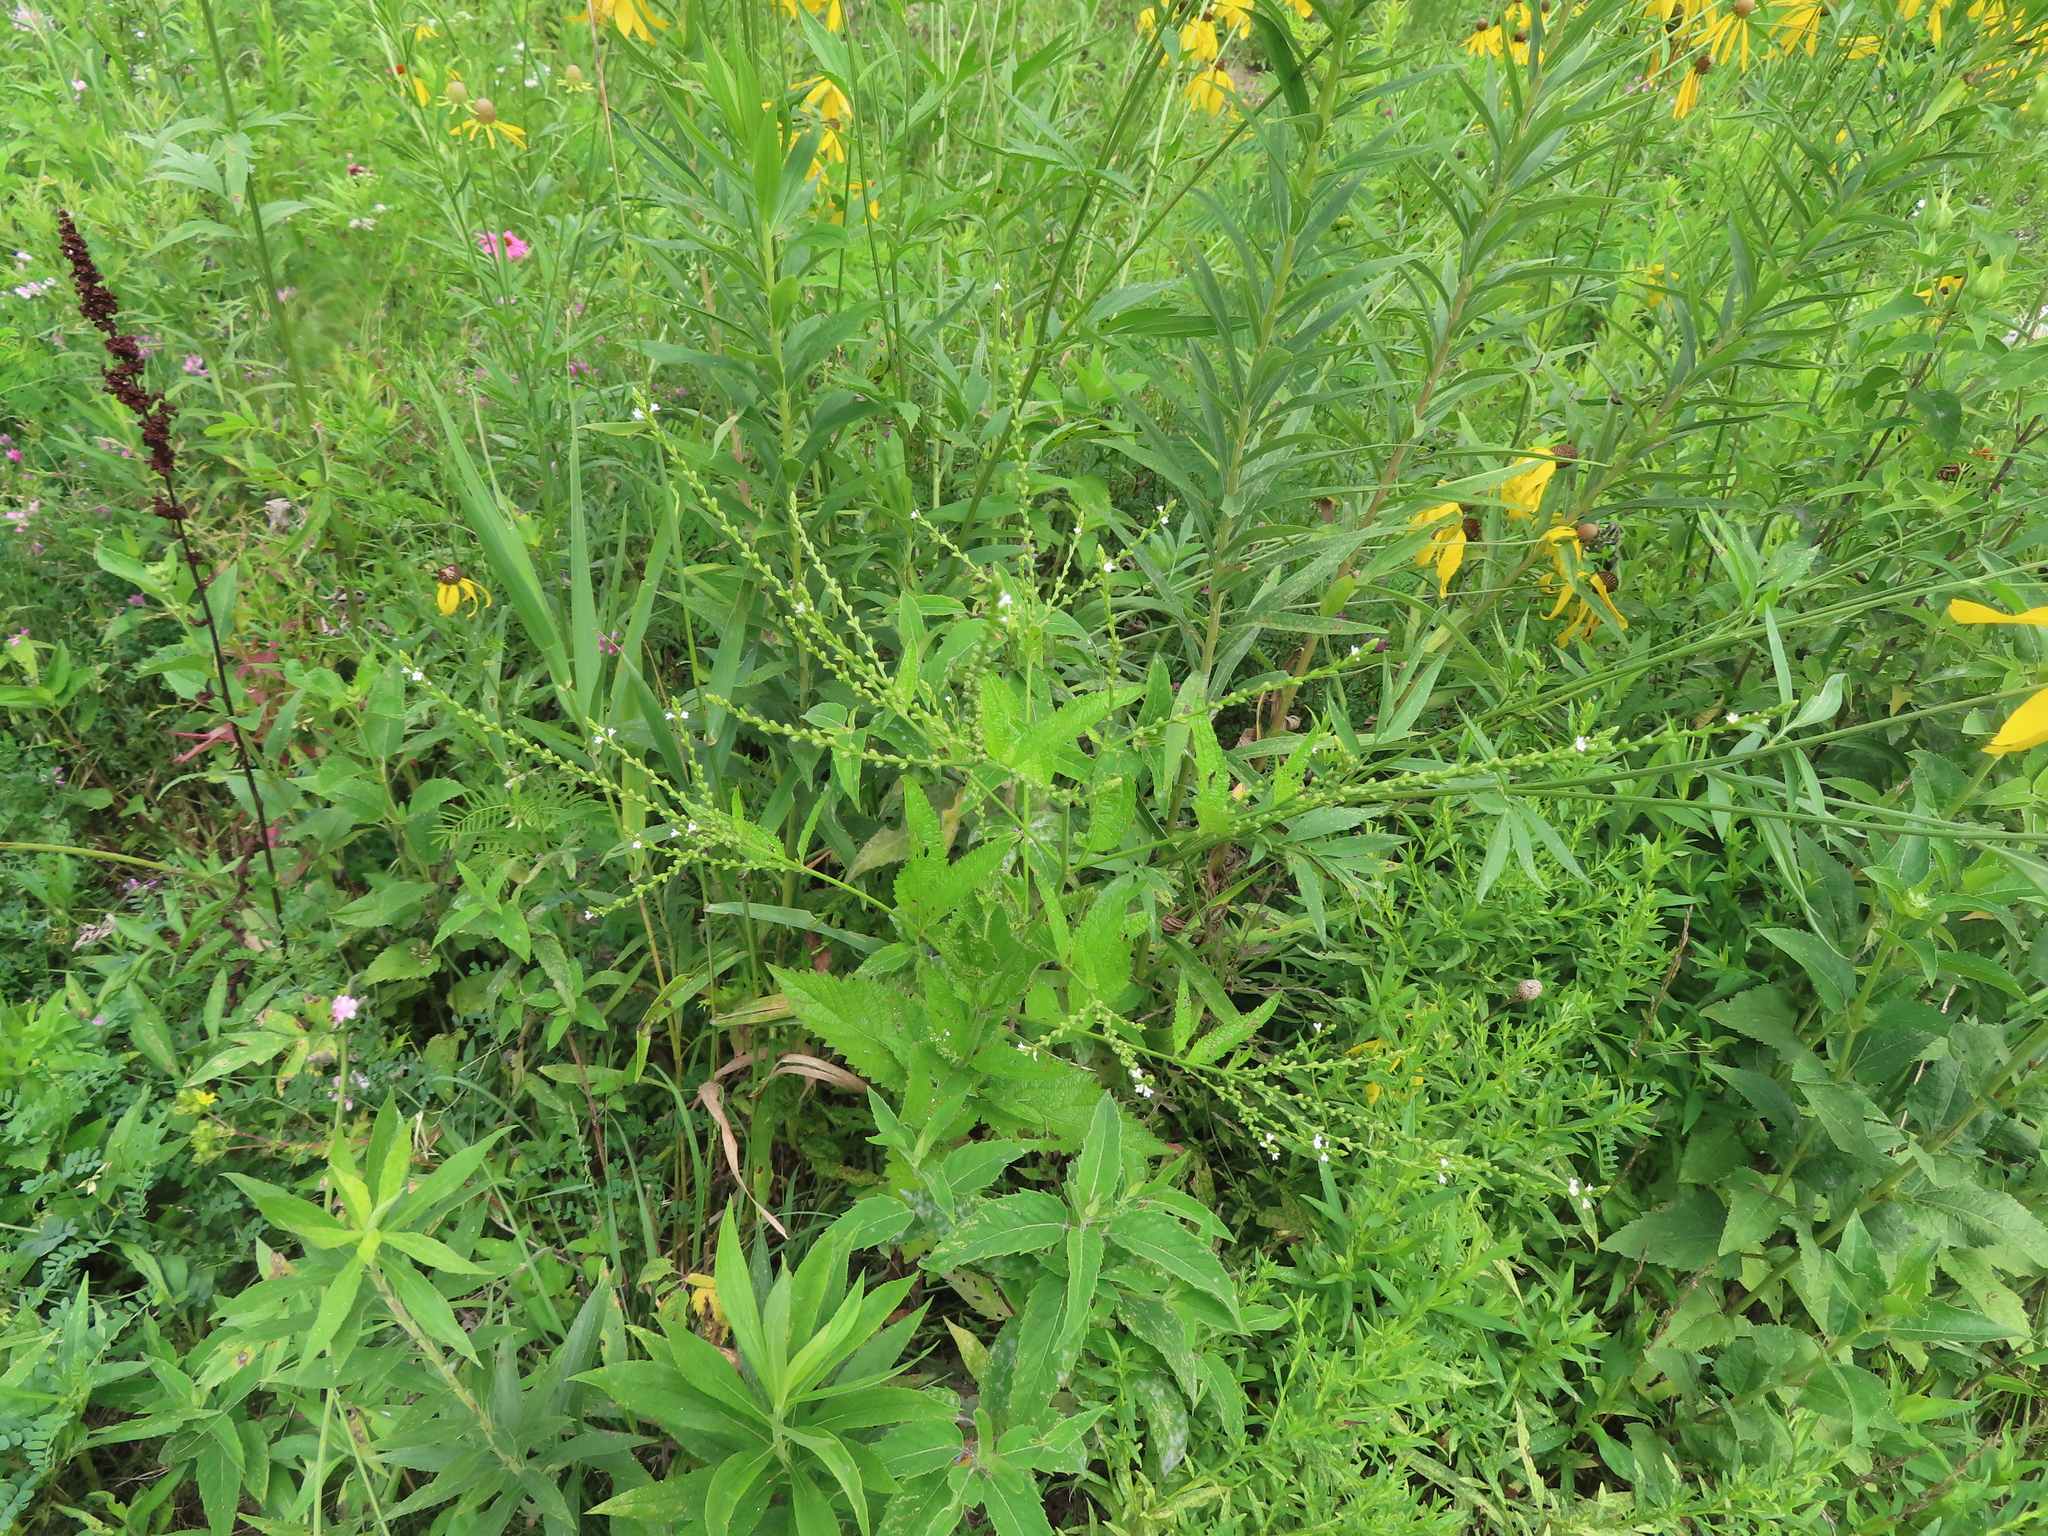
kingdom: Plantae
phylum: Tracheophyta
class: Magnoliopsida
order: Lamiales
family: Verbenaceae
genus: Verbena
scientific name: Verbena urticifolia
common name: Nettle-leaved vervain
